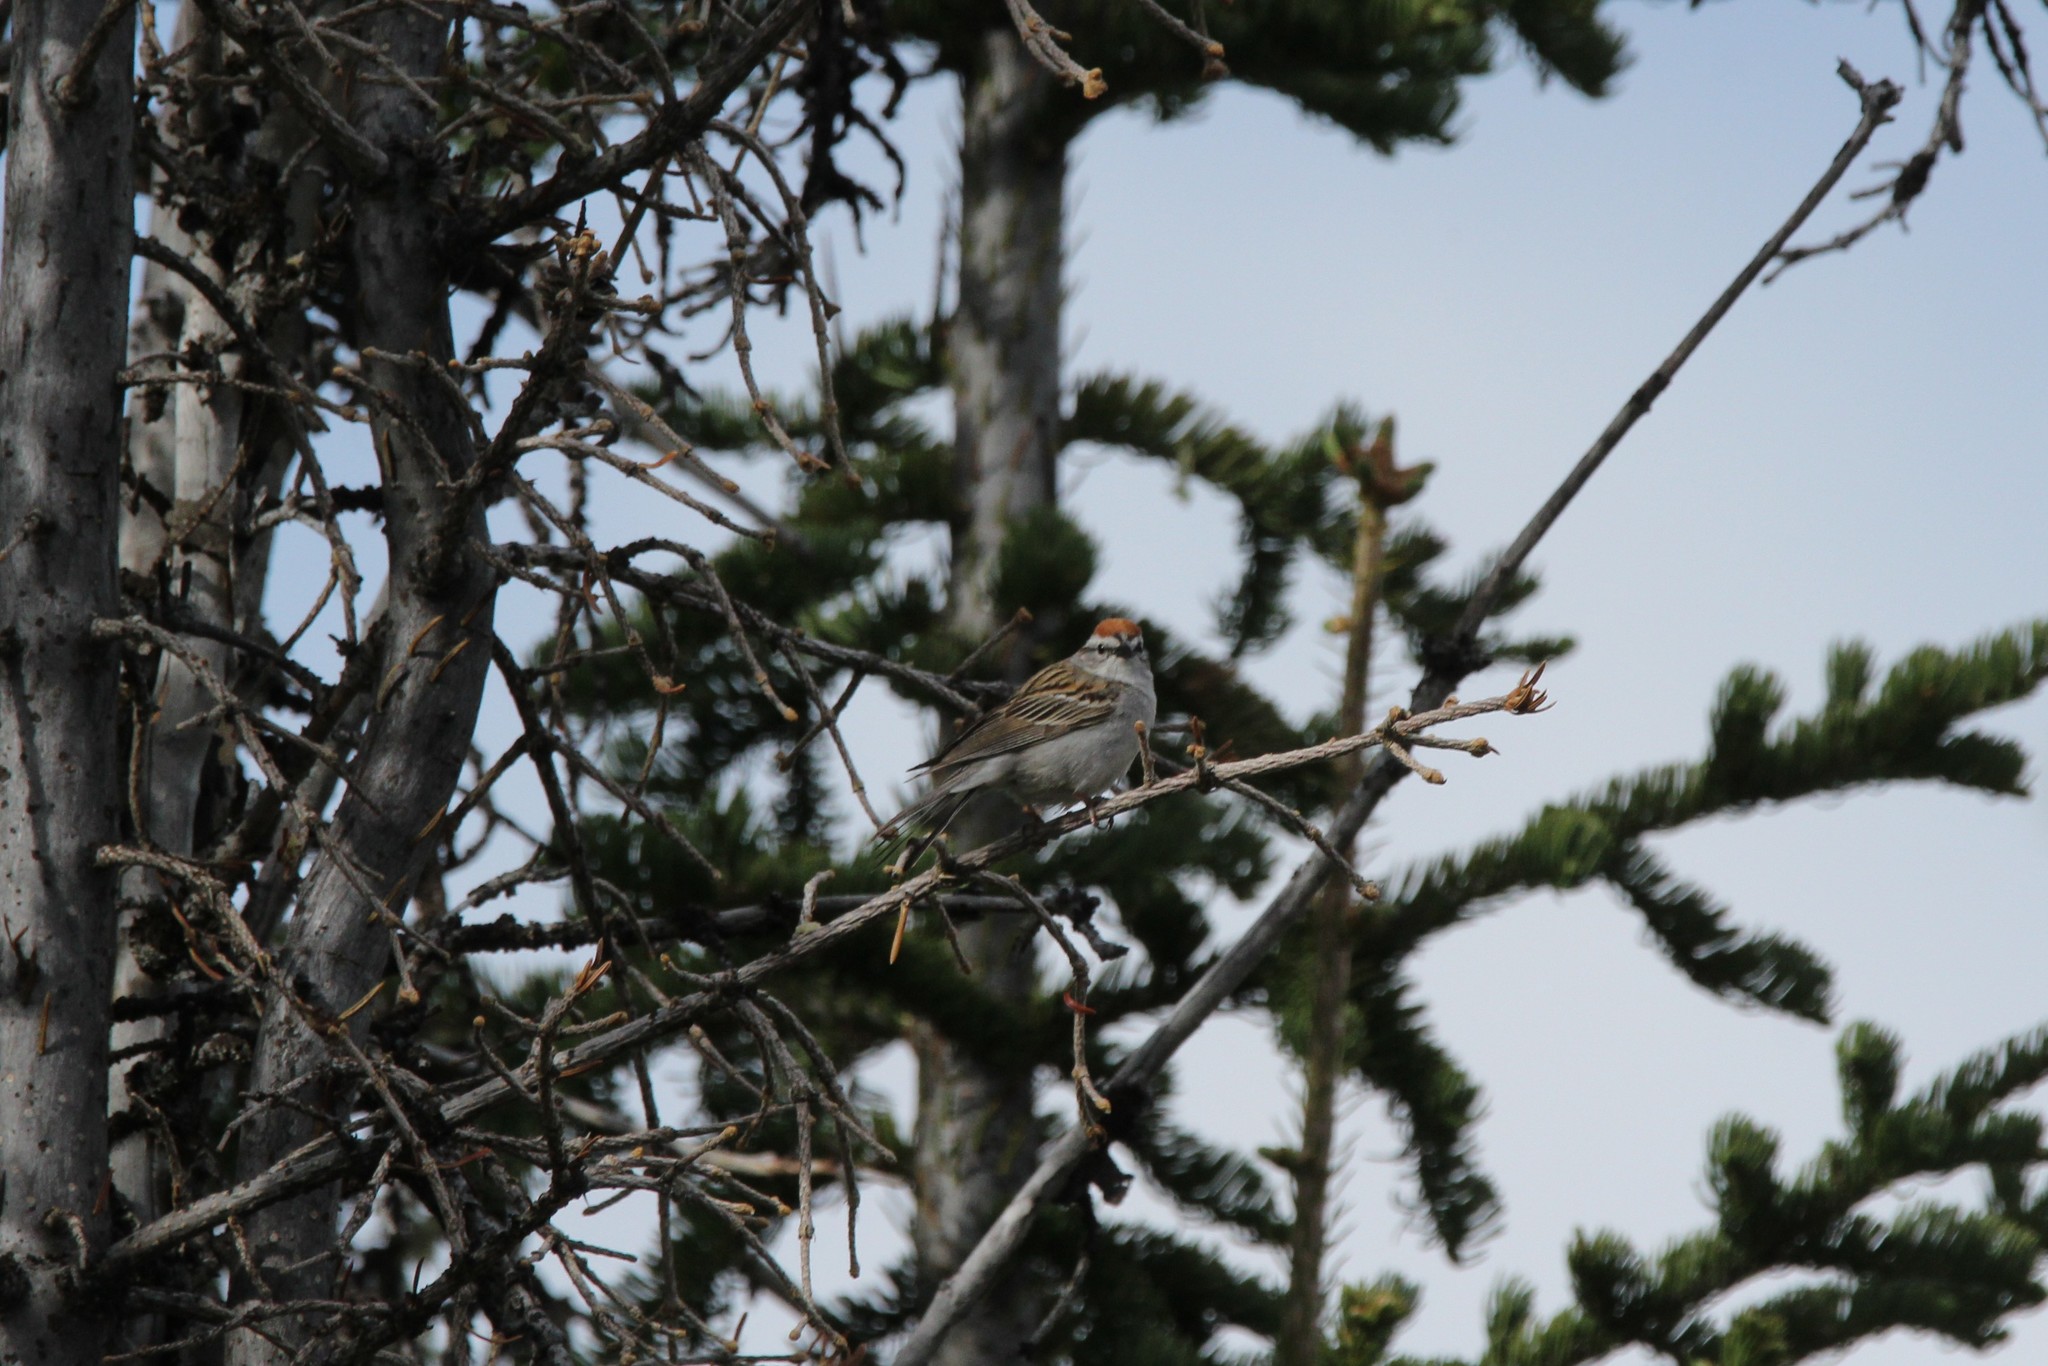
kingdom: Animalia
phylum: Chordata
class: Aves
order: Passeriformes
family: Passerellidae
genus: Spizella
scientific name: Spizella passerina
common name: Chipping sparrow
